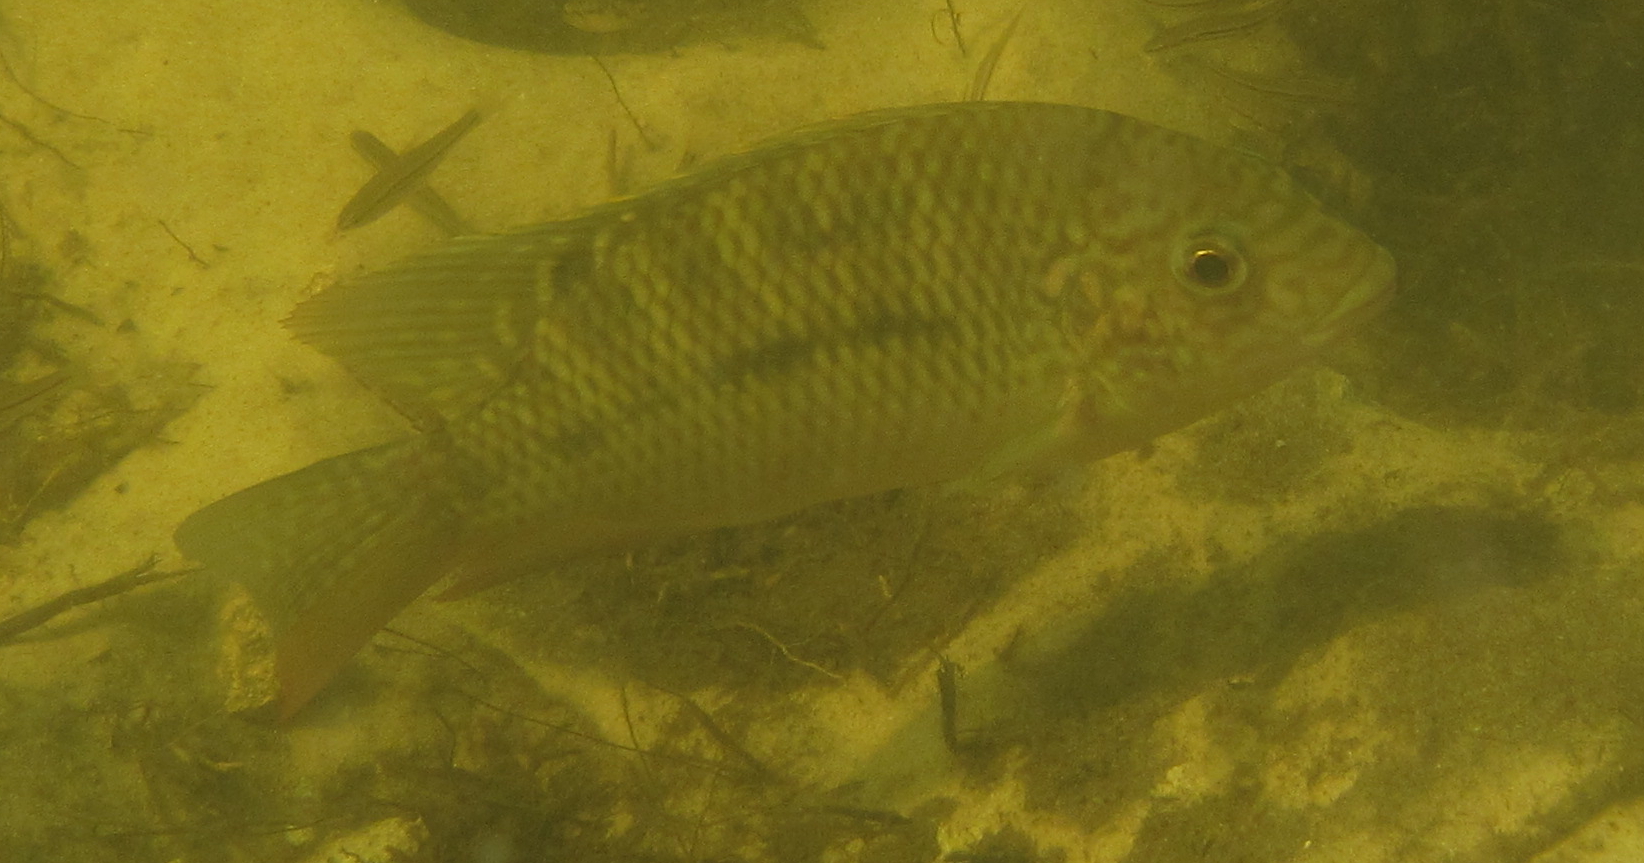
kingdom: Animalia
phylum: Chordata
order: Perciformes
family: Cichlidae
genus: Coptodon
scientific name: Coptodon rendalli
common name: Redbreast tilapia
